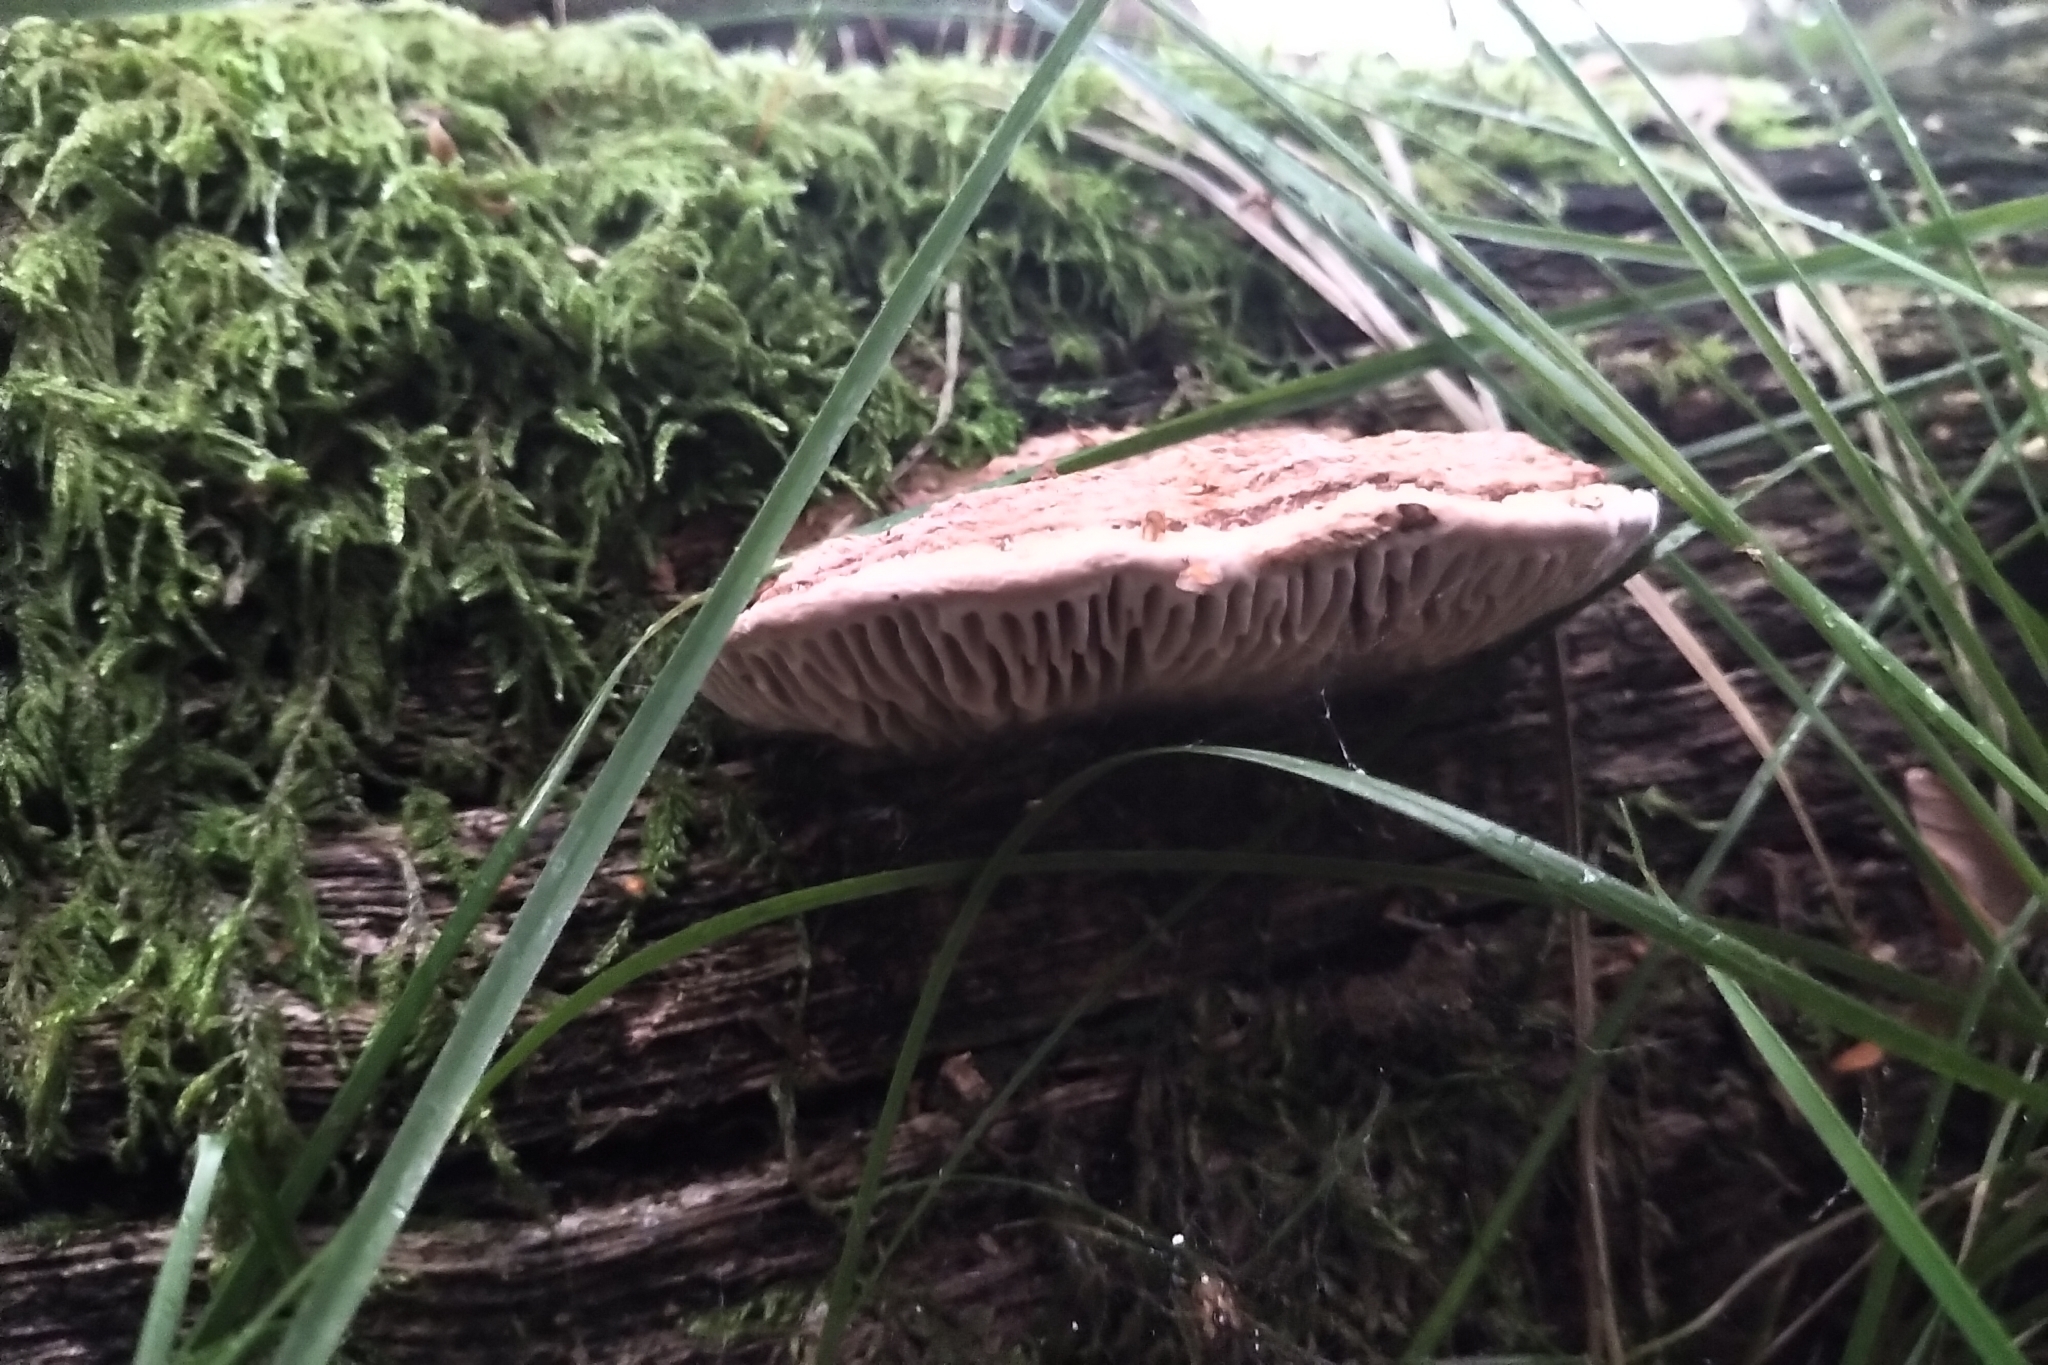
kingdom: Fungi
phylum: Basidiomycota
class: Agaricomycetes
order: Polyporales
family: Polyporaceae
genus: Daedaleopsis
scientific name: Daedaleopsis confragosa
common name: Blushing bracket
